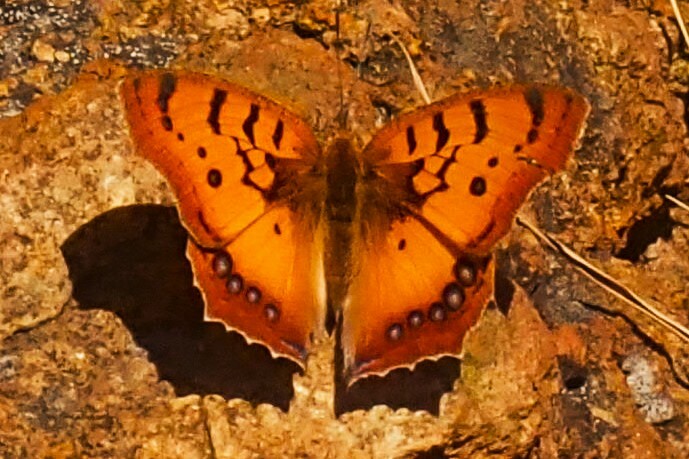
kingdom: Animalia
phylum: Arthropoda
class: Insecta
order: Lepidoptera
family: Nymphalidae
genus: Catacroptera
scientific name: Catacroptera cloanthe
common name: Pirate
